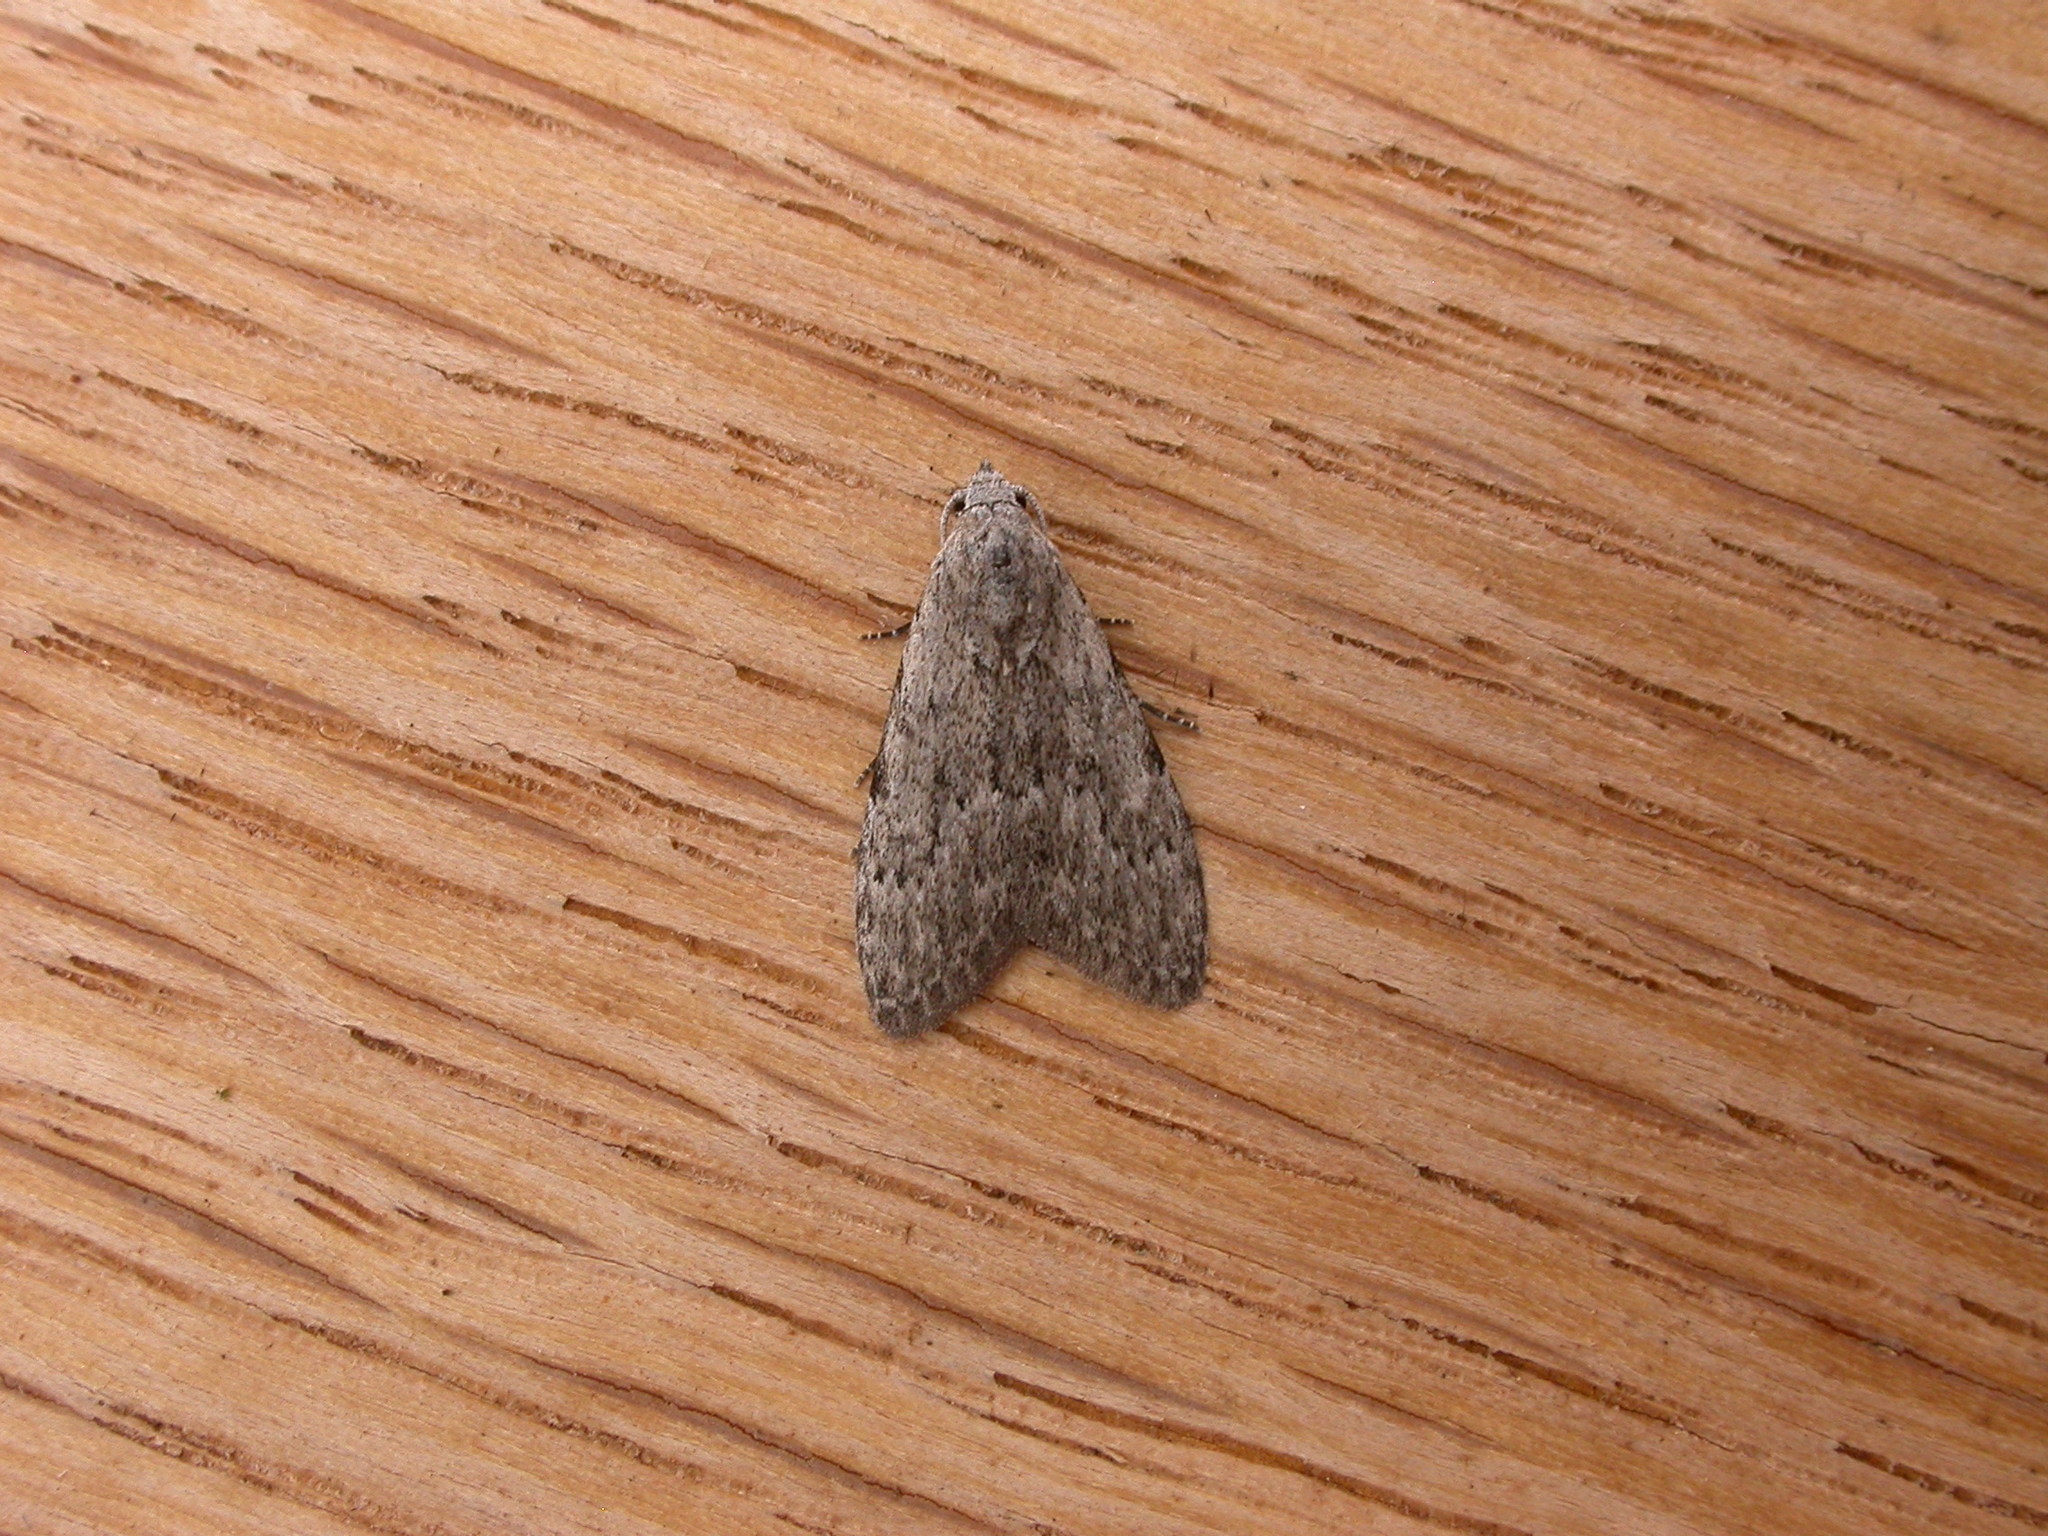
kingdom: Animalia
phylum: Arthropoda
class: Insecta
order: Lepidoptera
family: Nolidae
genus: Nola
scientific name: Nola pleurosema
